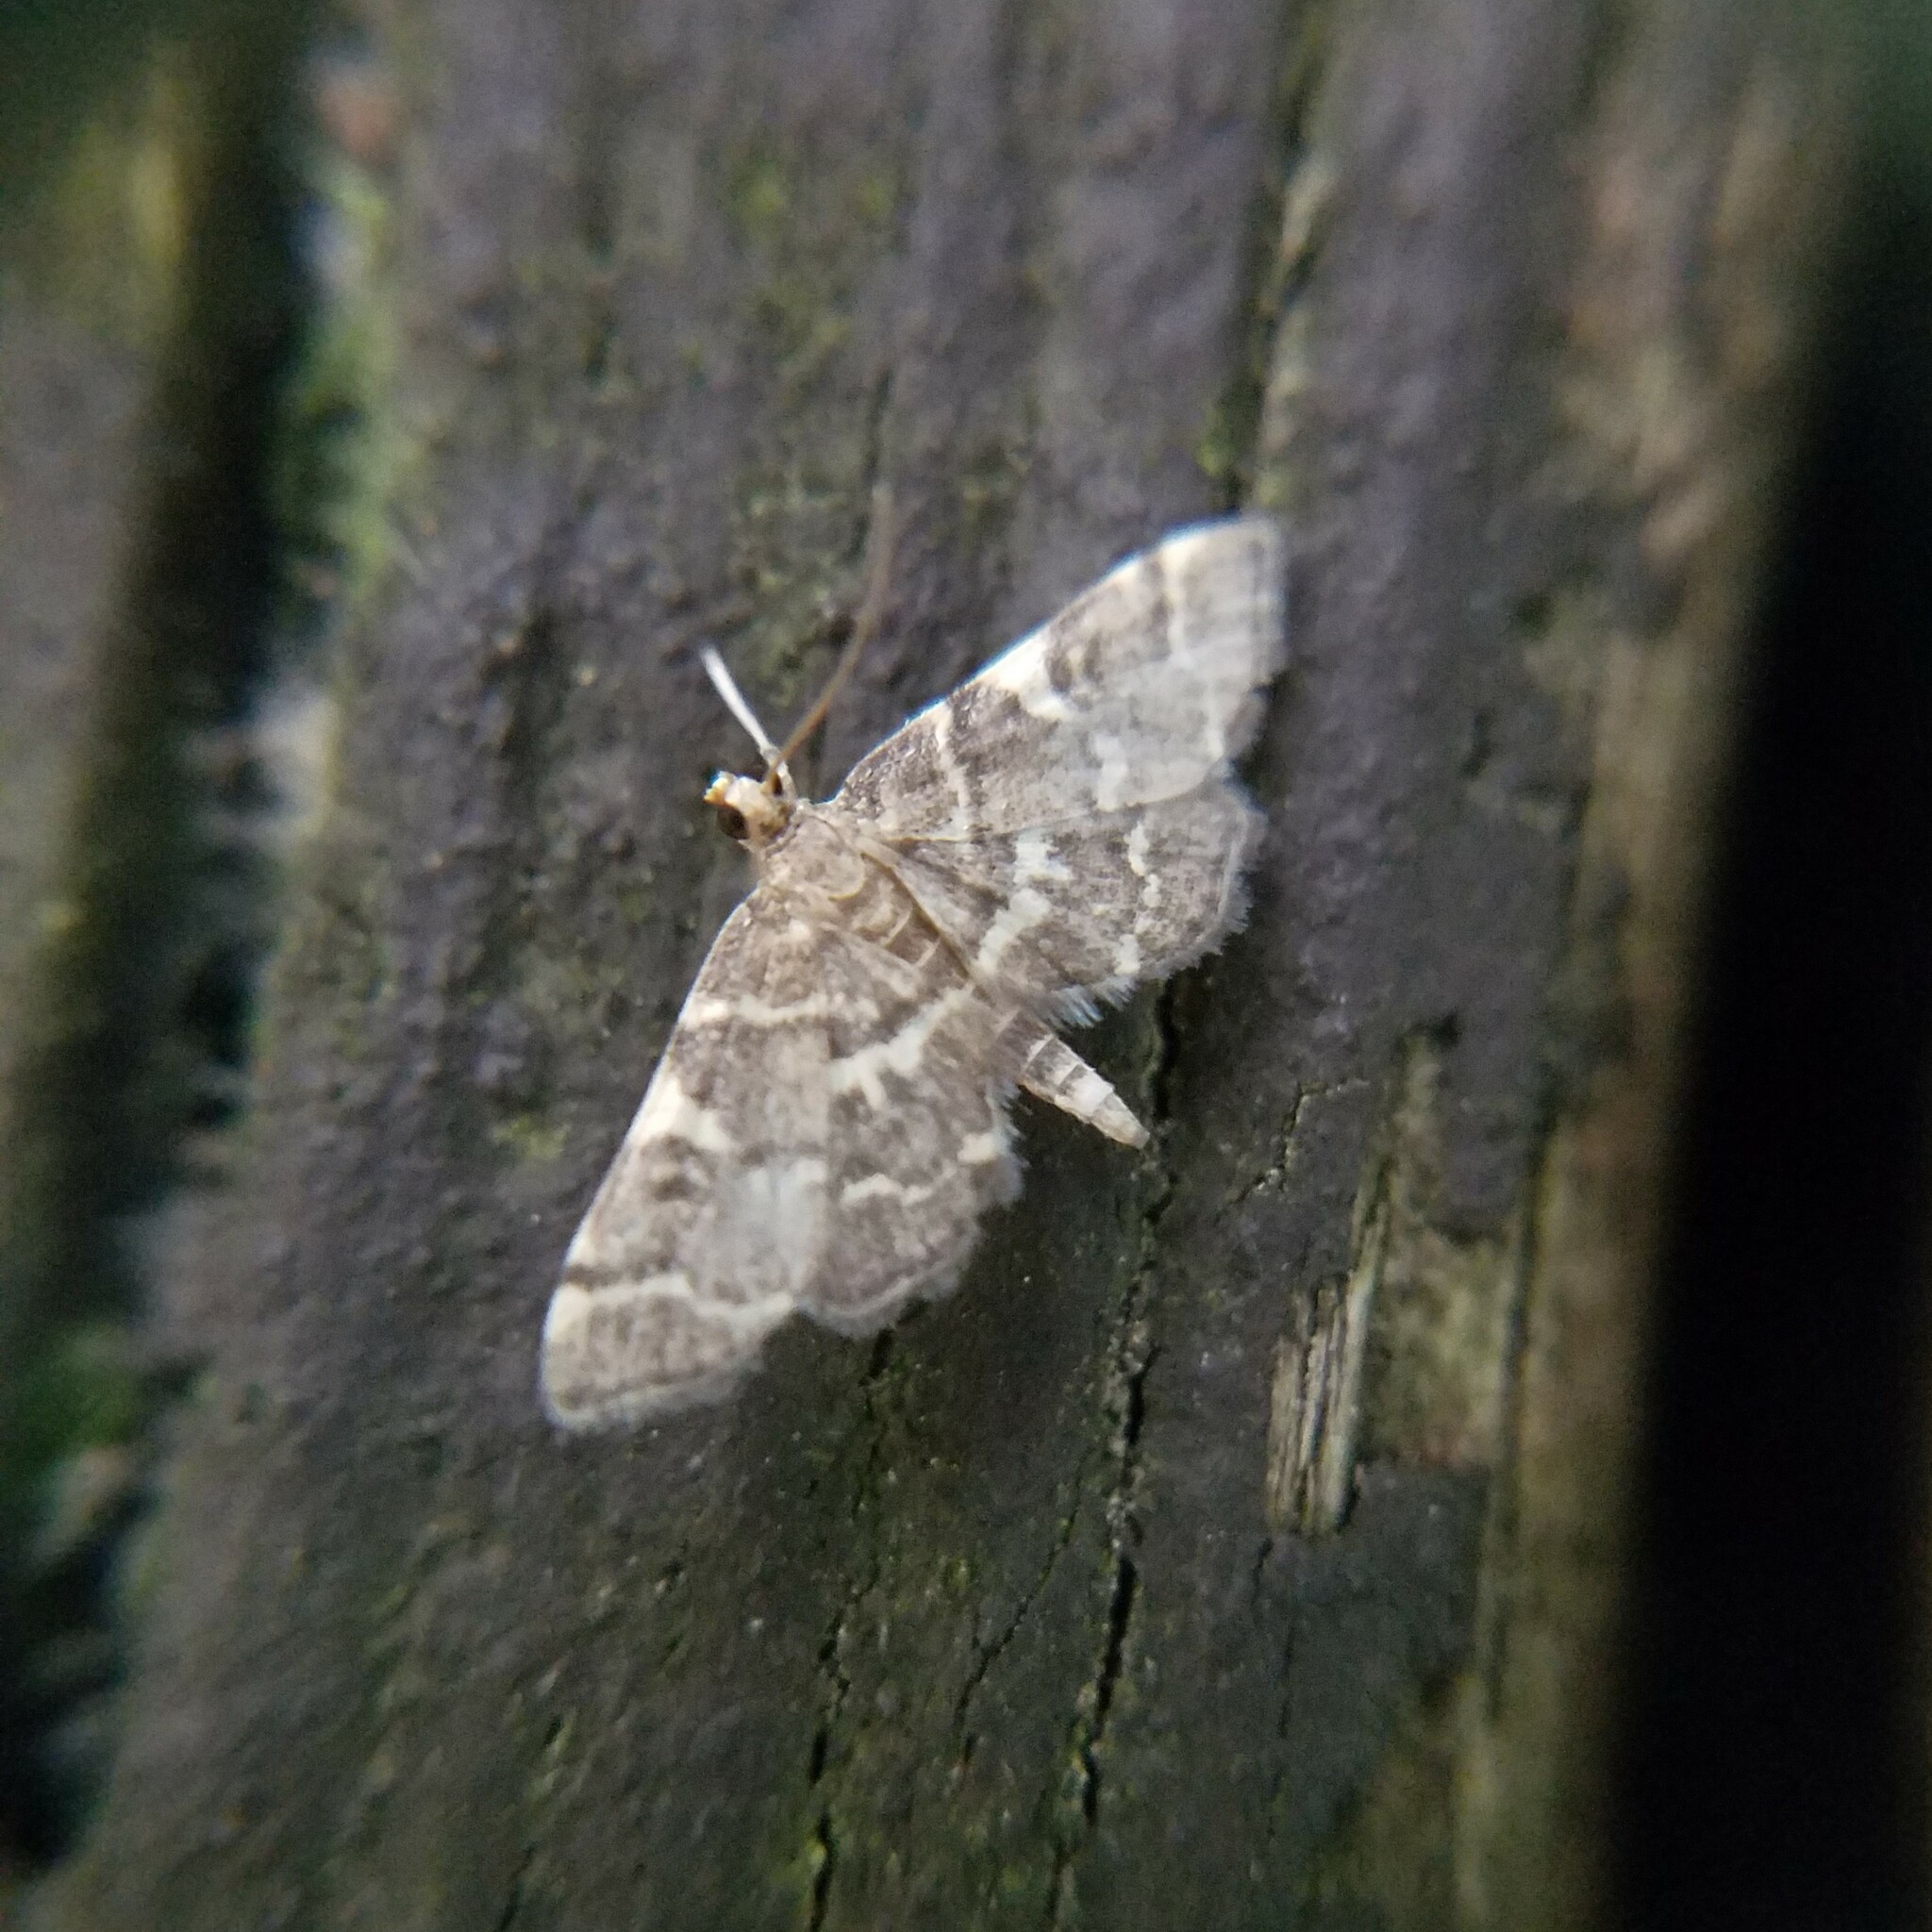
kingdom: Animalia
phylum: Arthropoda
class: Insecta
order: Lepidoptera
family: Crambidae
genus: Anageshna
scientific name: Anageshna primordialis
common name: Yellow-spotted webworm moth
